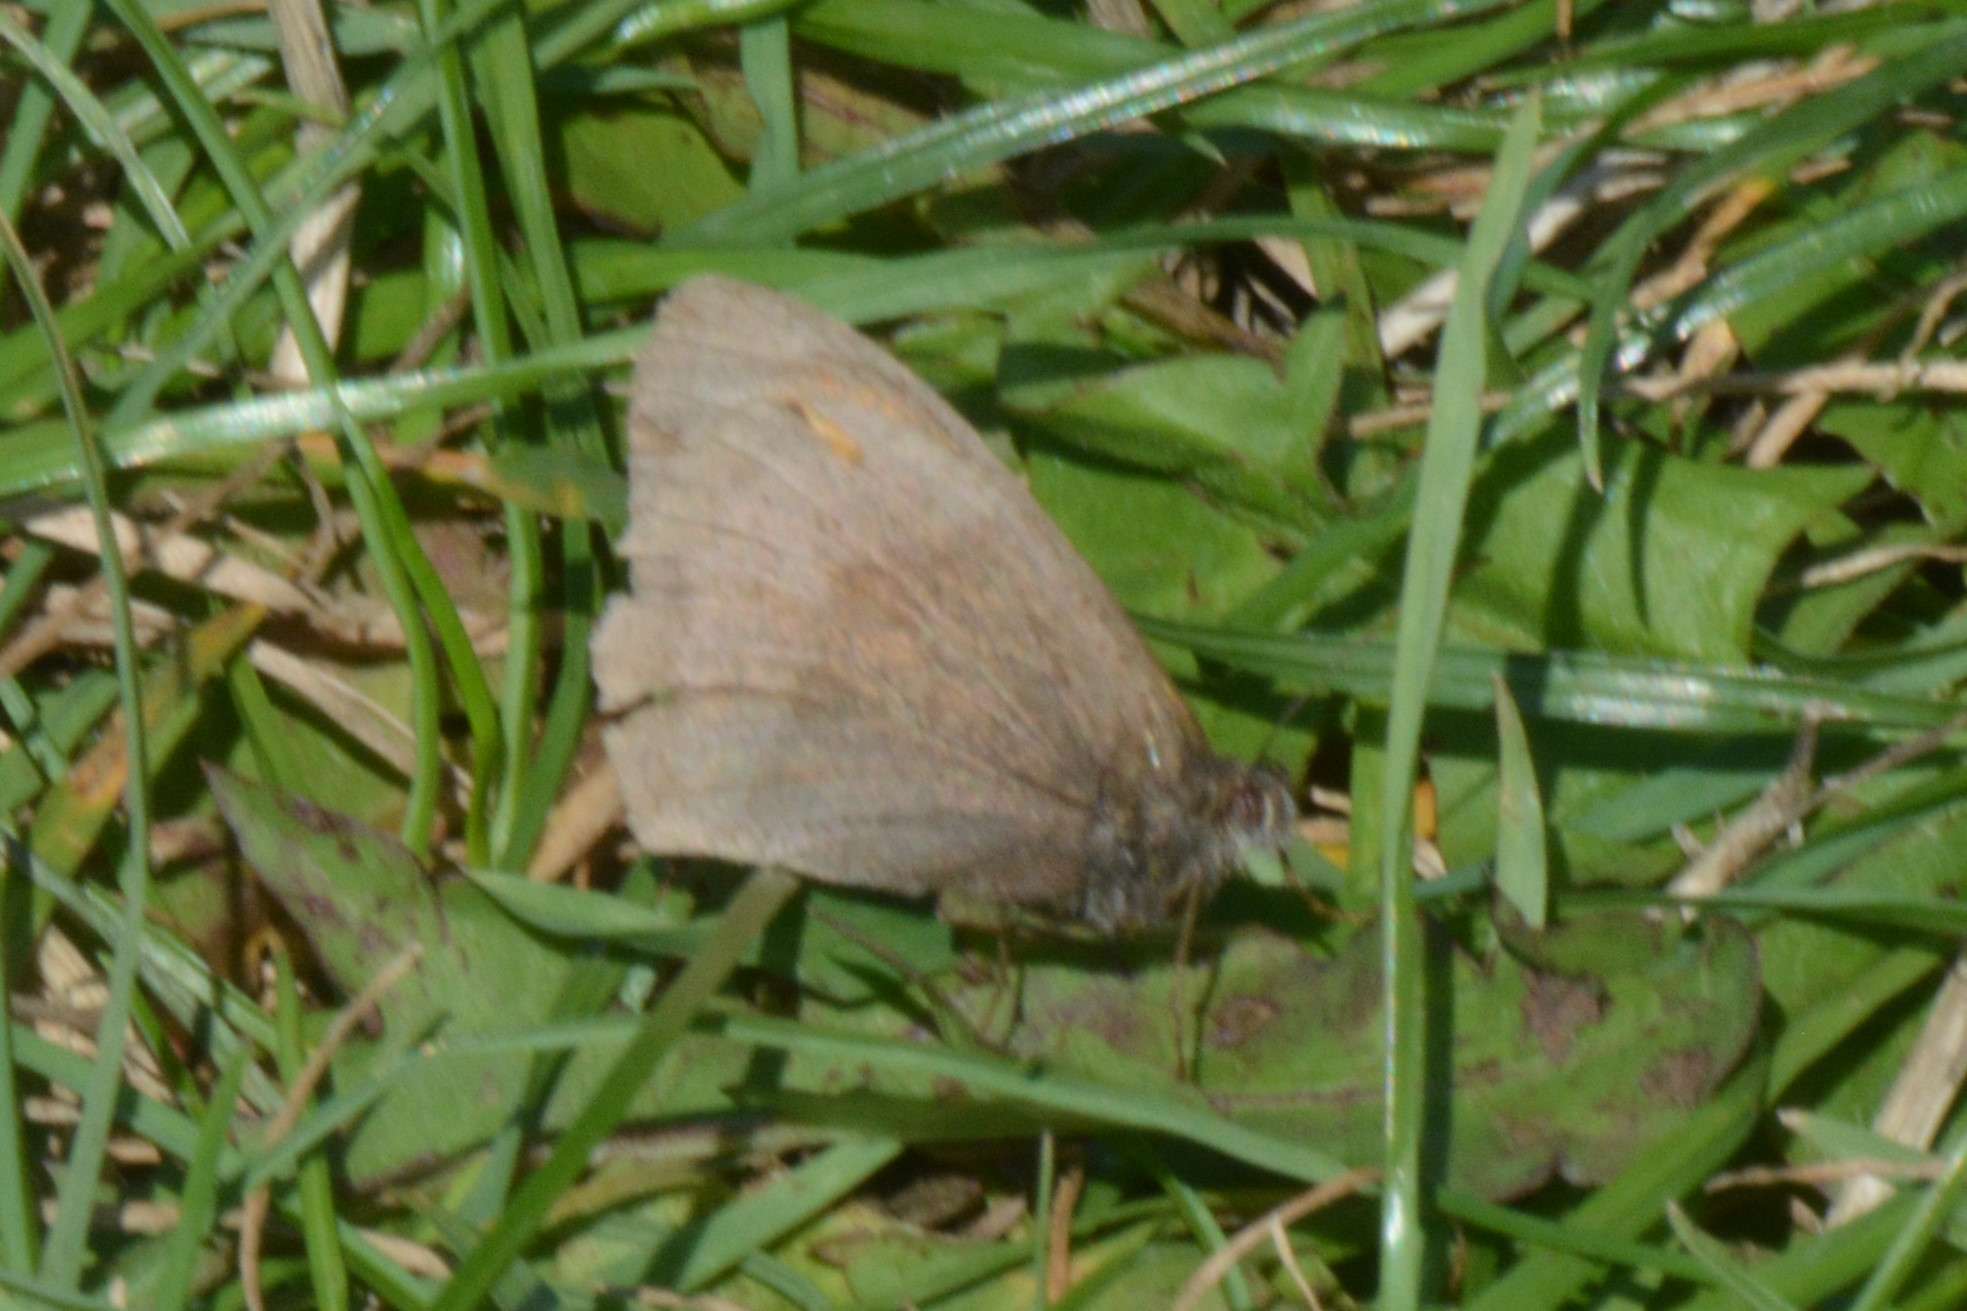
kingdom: Animalia
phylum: Arthropoda
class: Insecta
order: Lepidoptera
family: Nymphalidae
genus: Maniola
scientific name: Maniola jurtina
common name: Meadow brown
